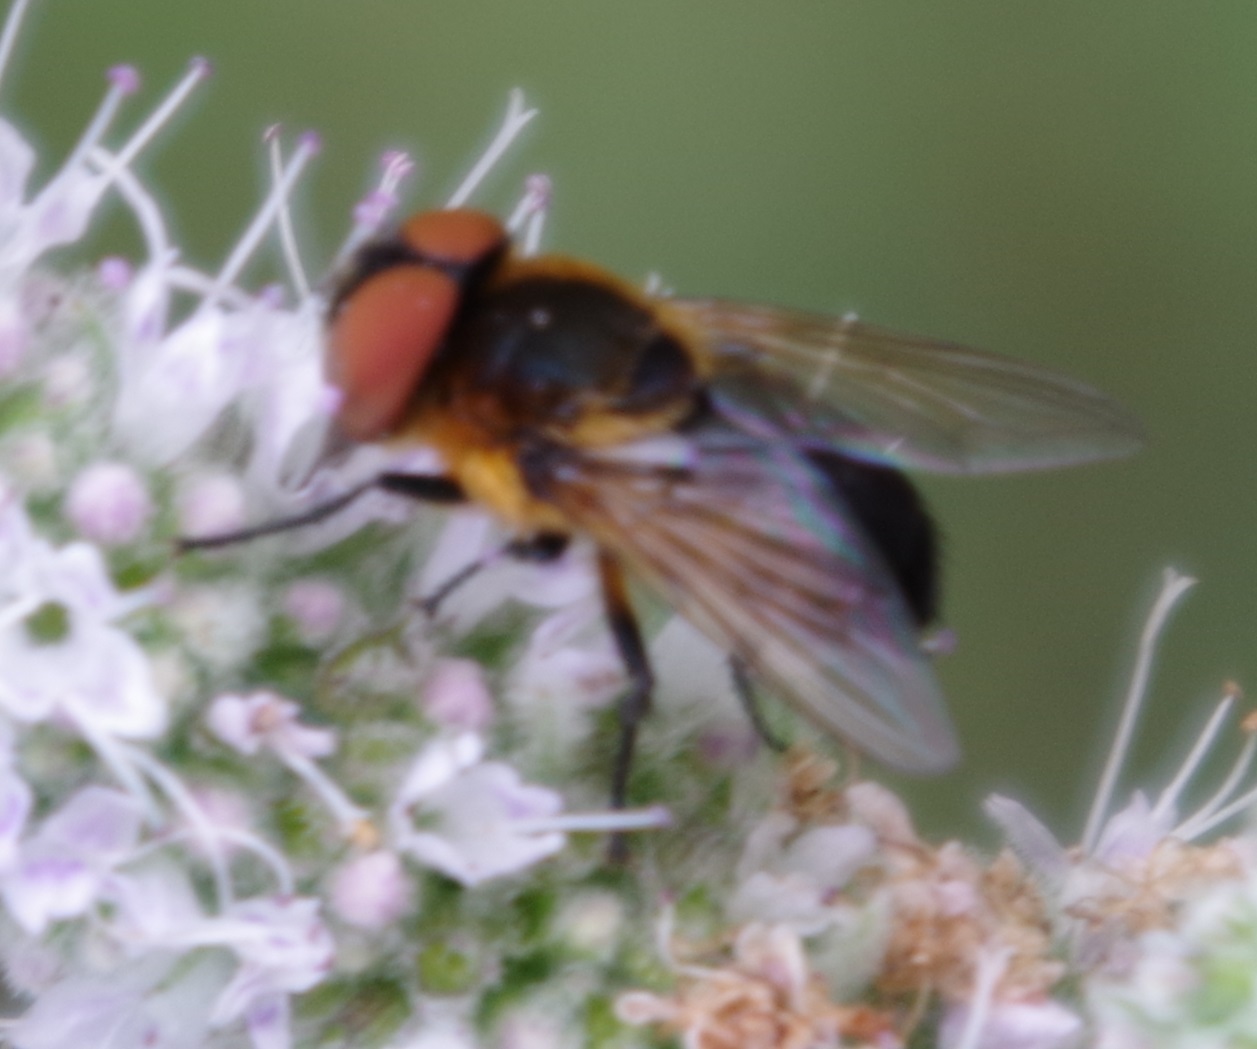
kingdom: Animalia
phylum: Arthropoda
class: Insecta
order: Diptera
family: Tachinidae
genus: Phasia
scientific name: Phasia hemiptera
